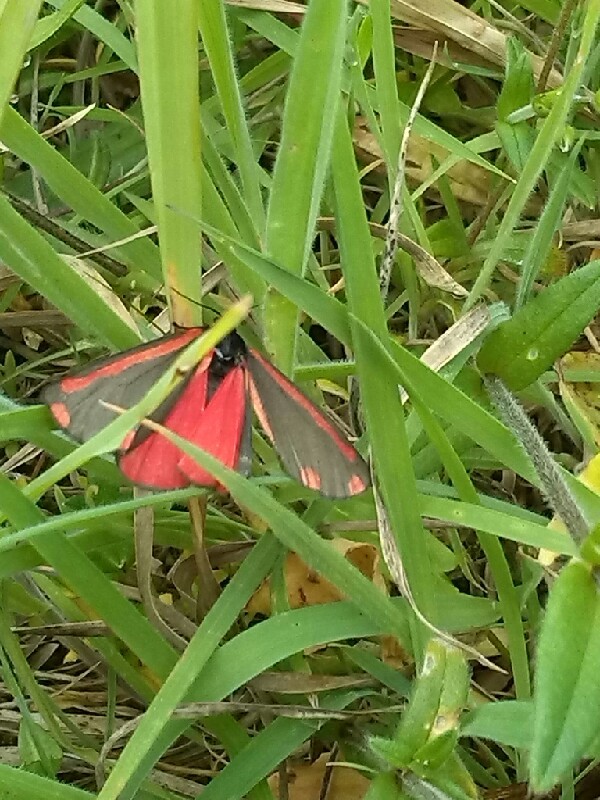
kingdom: Animalia
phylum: Arthropoda
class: Insecta
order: Lepidoptera
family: Erebidae
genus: Tyria
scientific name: Tyria jacobaeae
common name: Cinnabar
